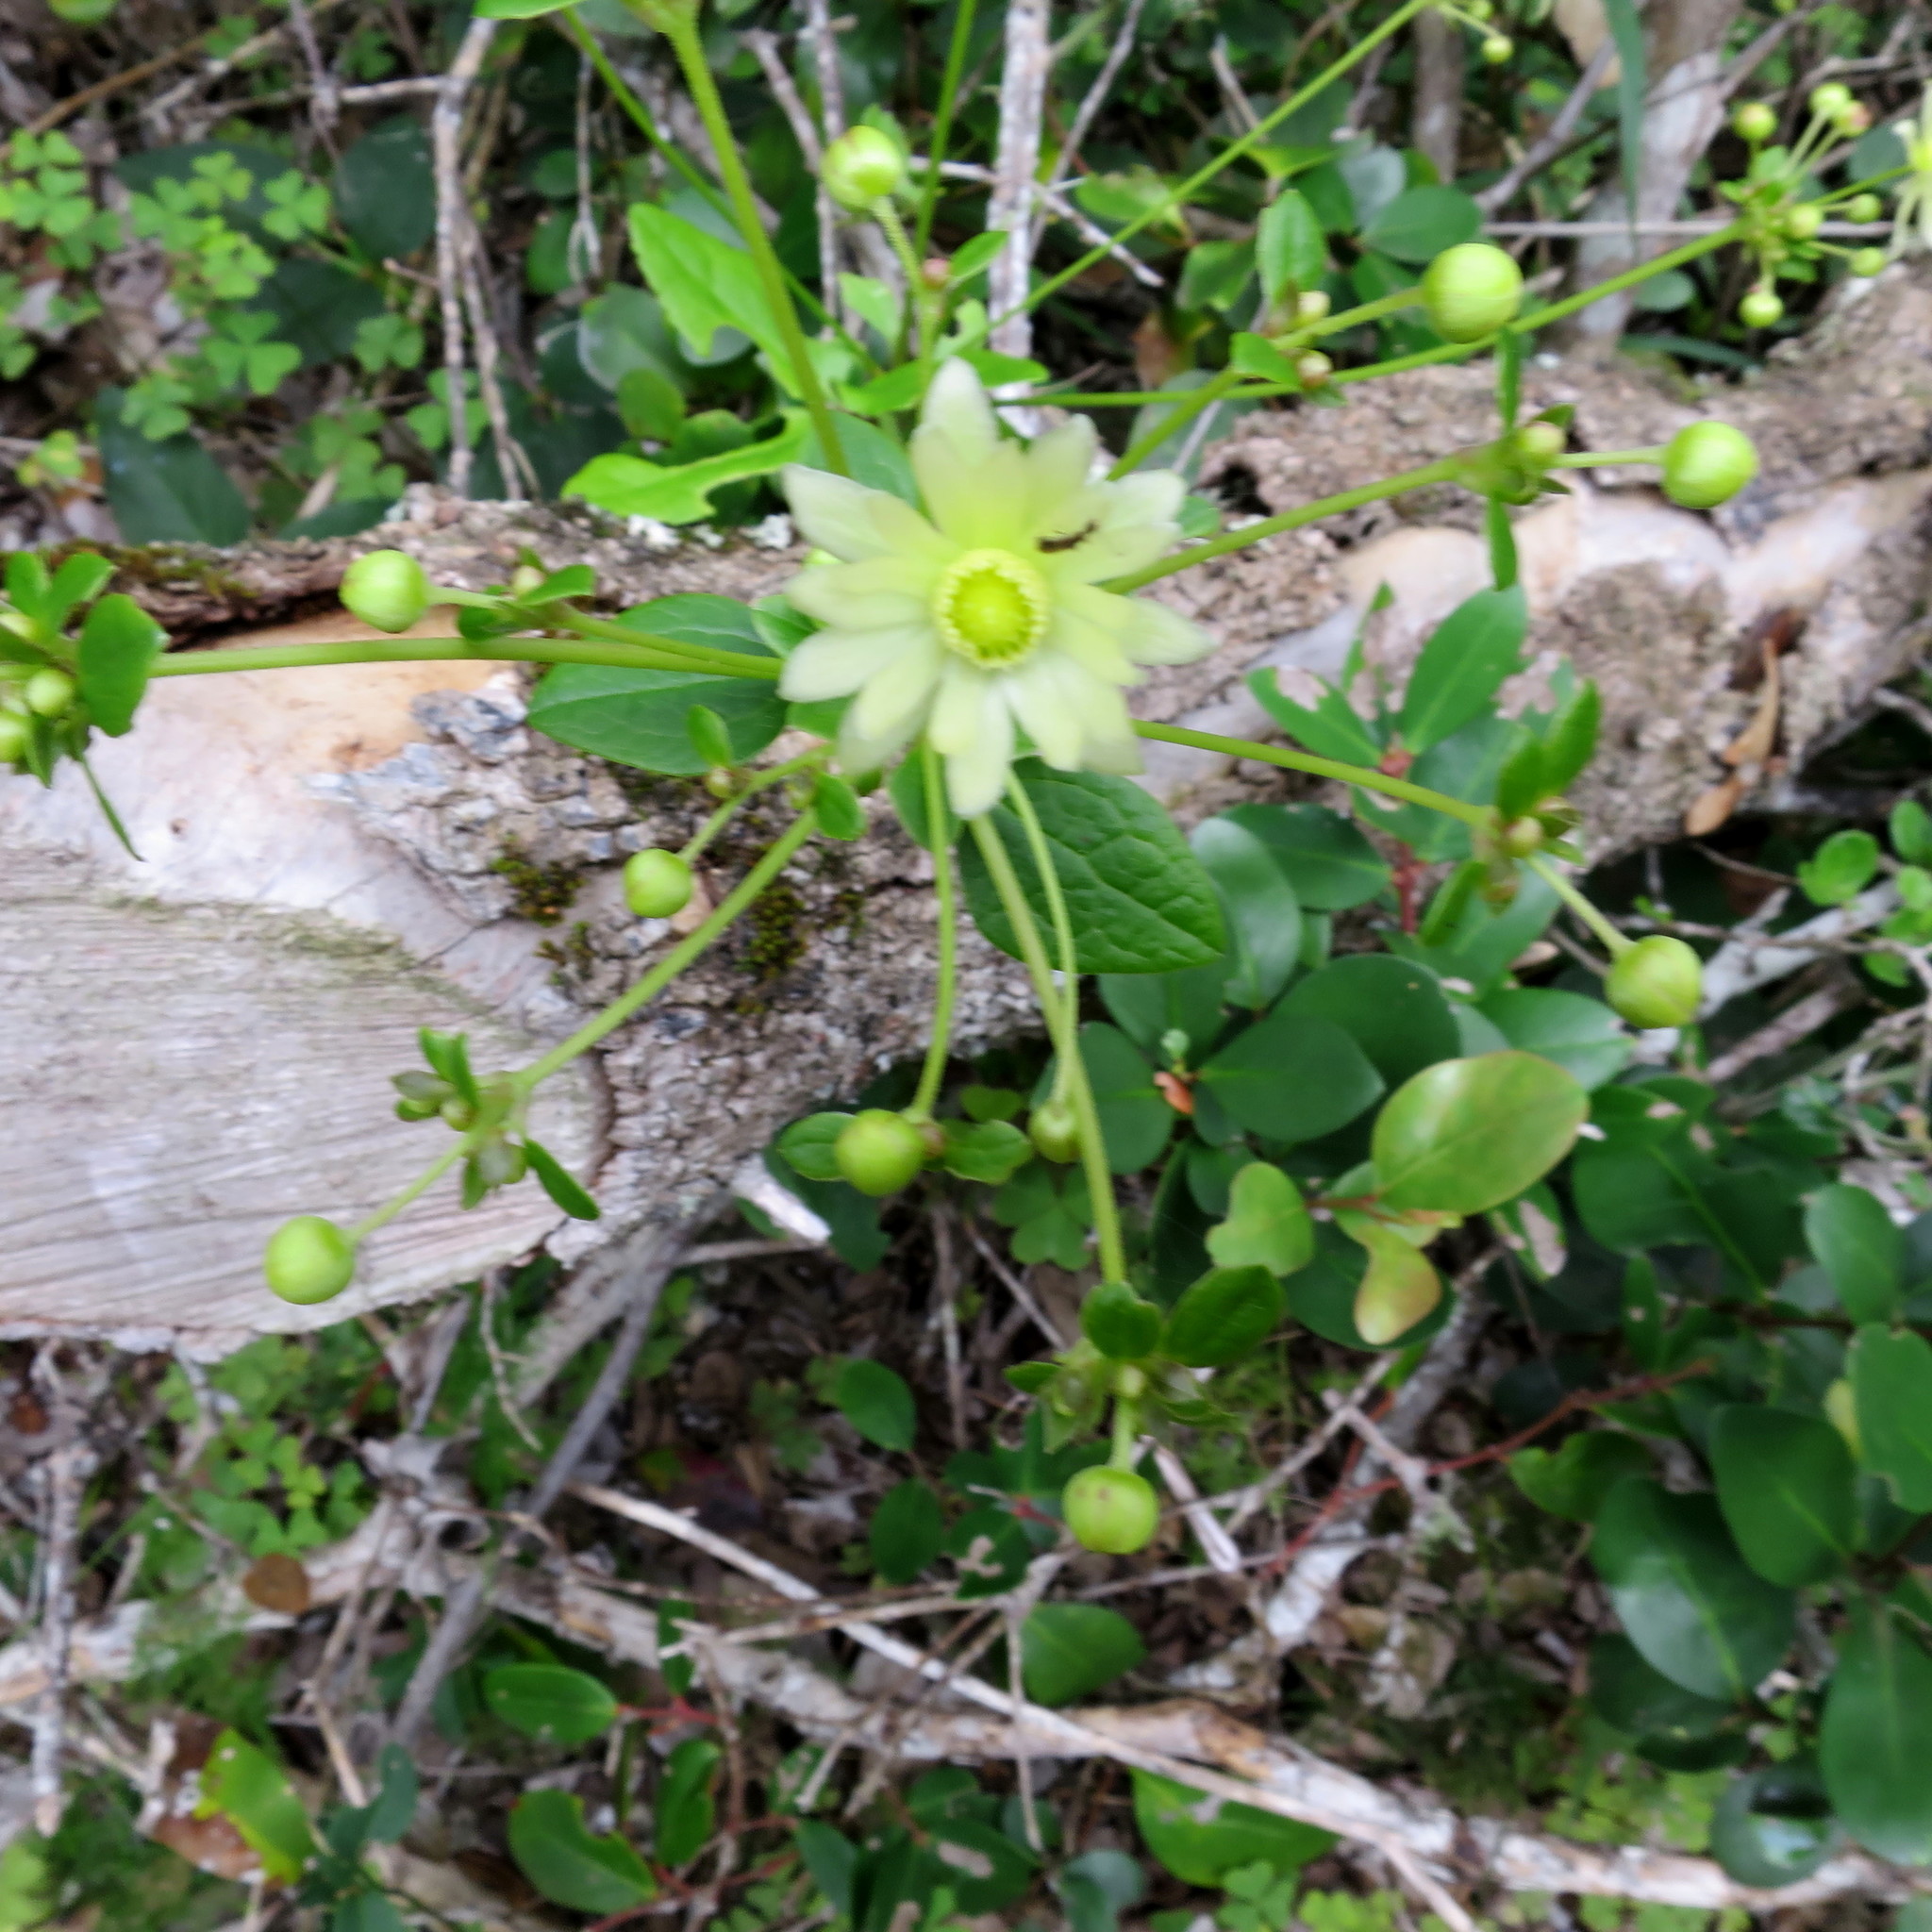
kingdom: Plantae
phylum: Tracheophyta
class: Magnoliopsida
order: Ranunculales
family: Ranunculaceae
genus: Knowltonia
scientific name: Knowltonia vesicatoria
